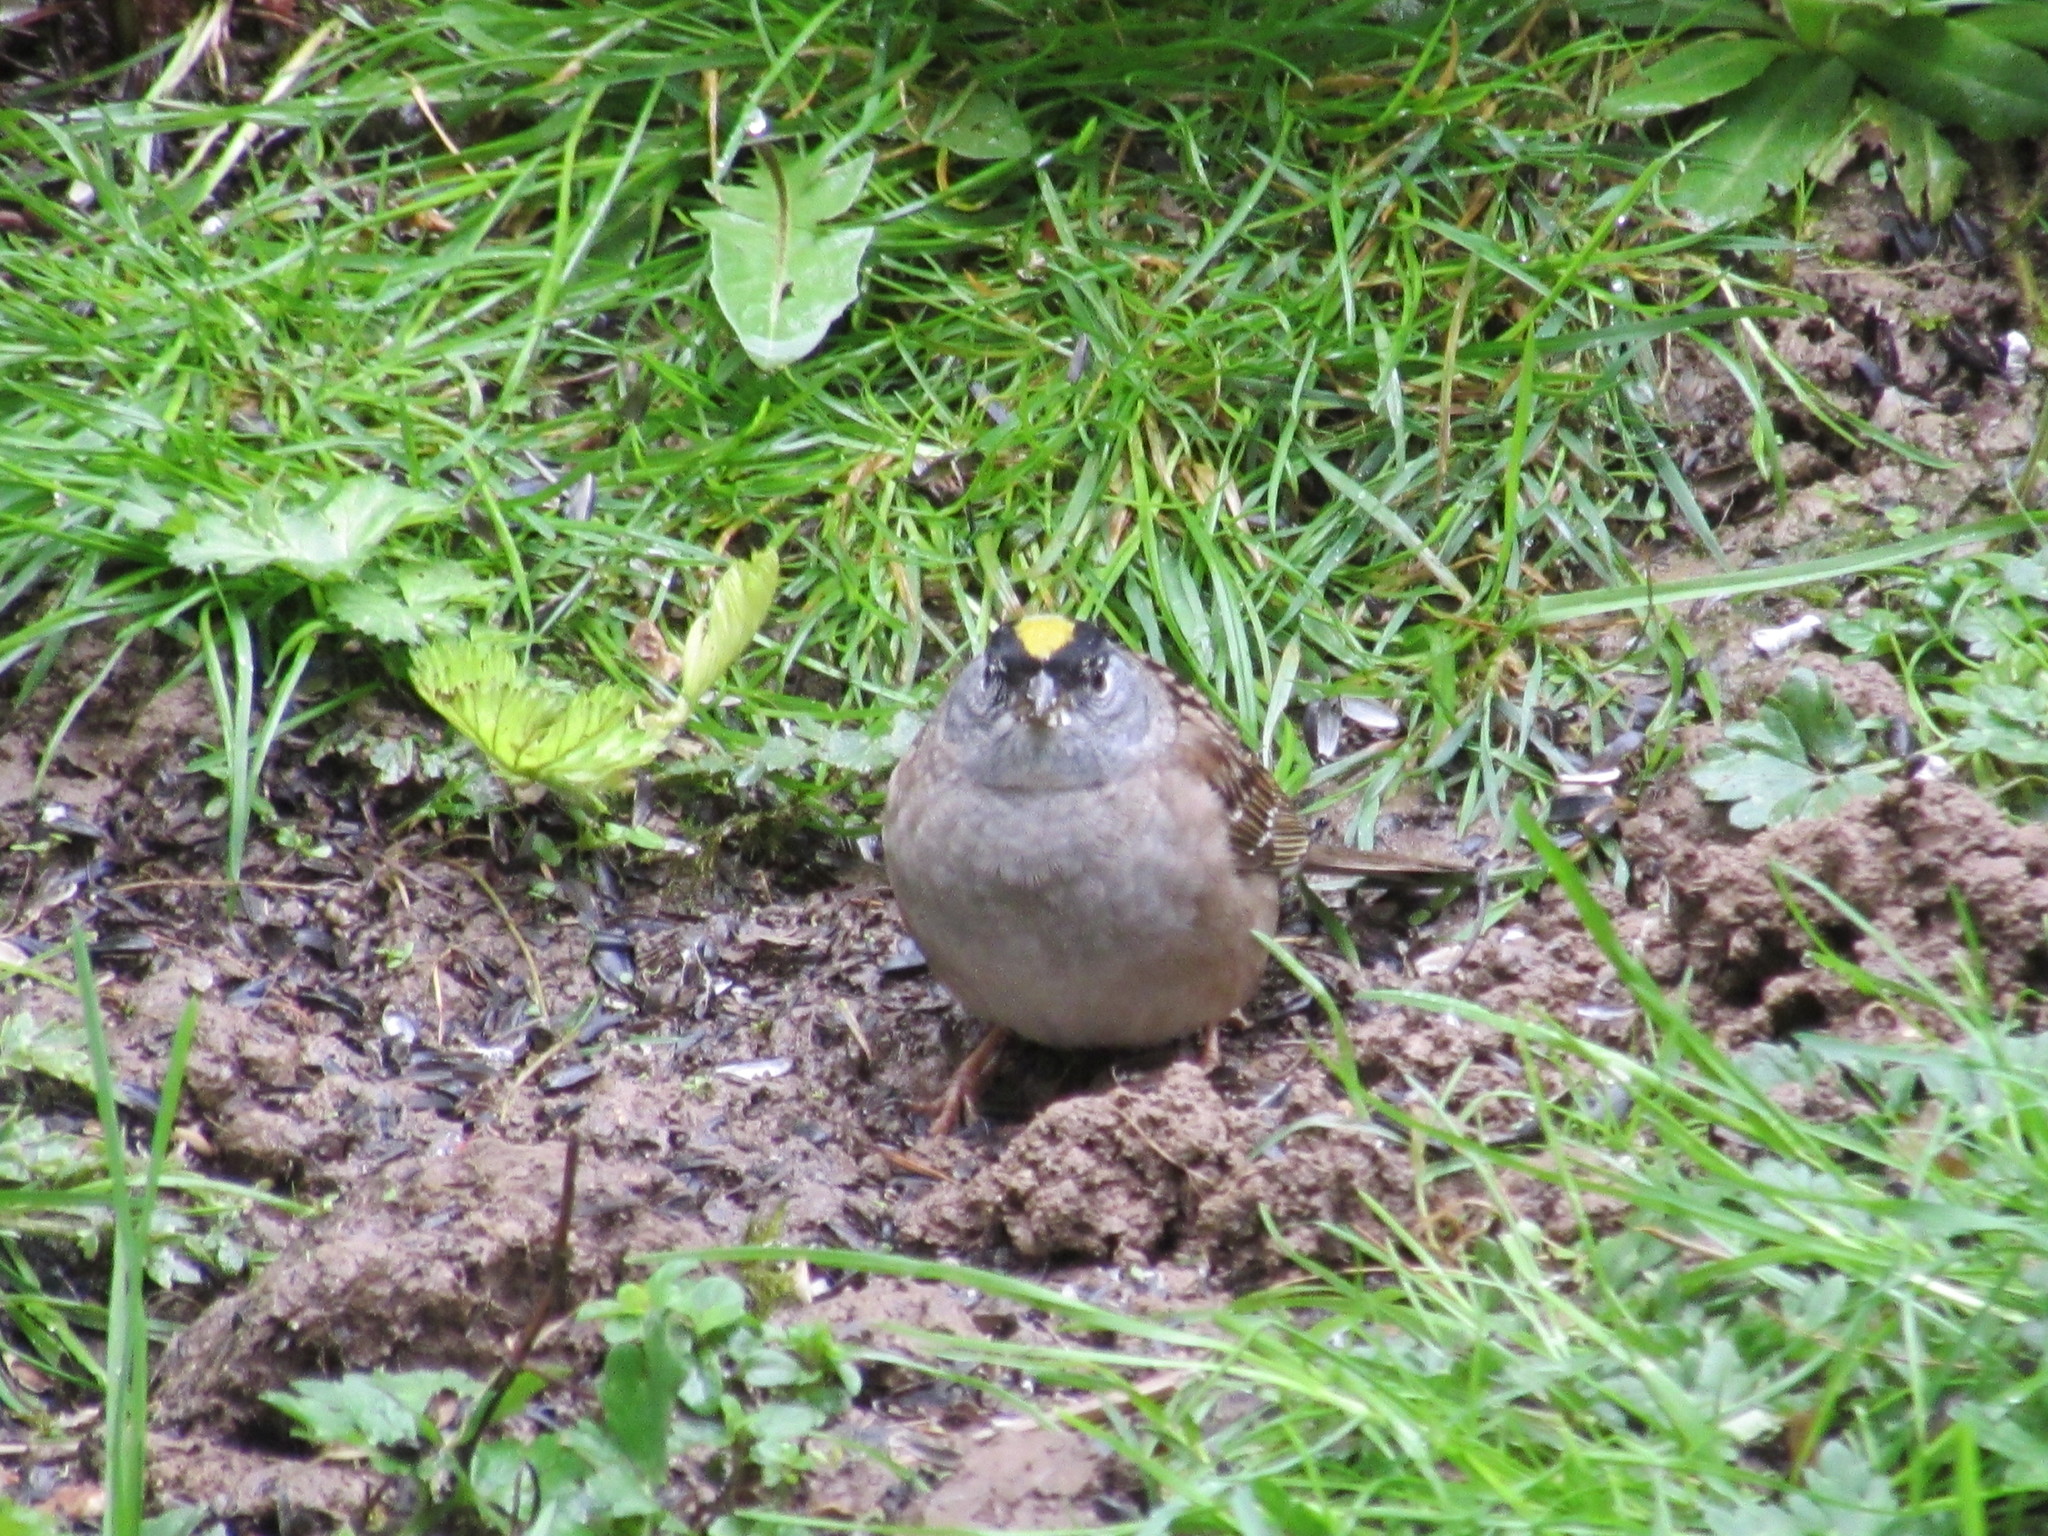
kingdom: Animalia
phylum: Chordata
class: Aves
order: Passeriformes
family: Passerellidae
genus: Zonotrichia
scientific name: Zonotrichia atricapilla
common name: Golden-crowned sparrow
